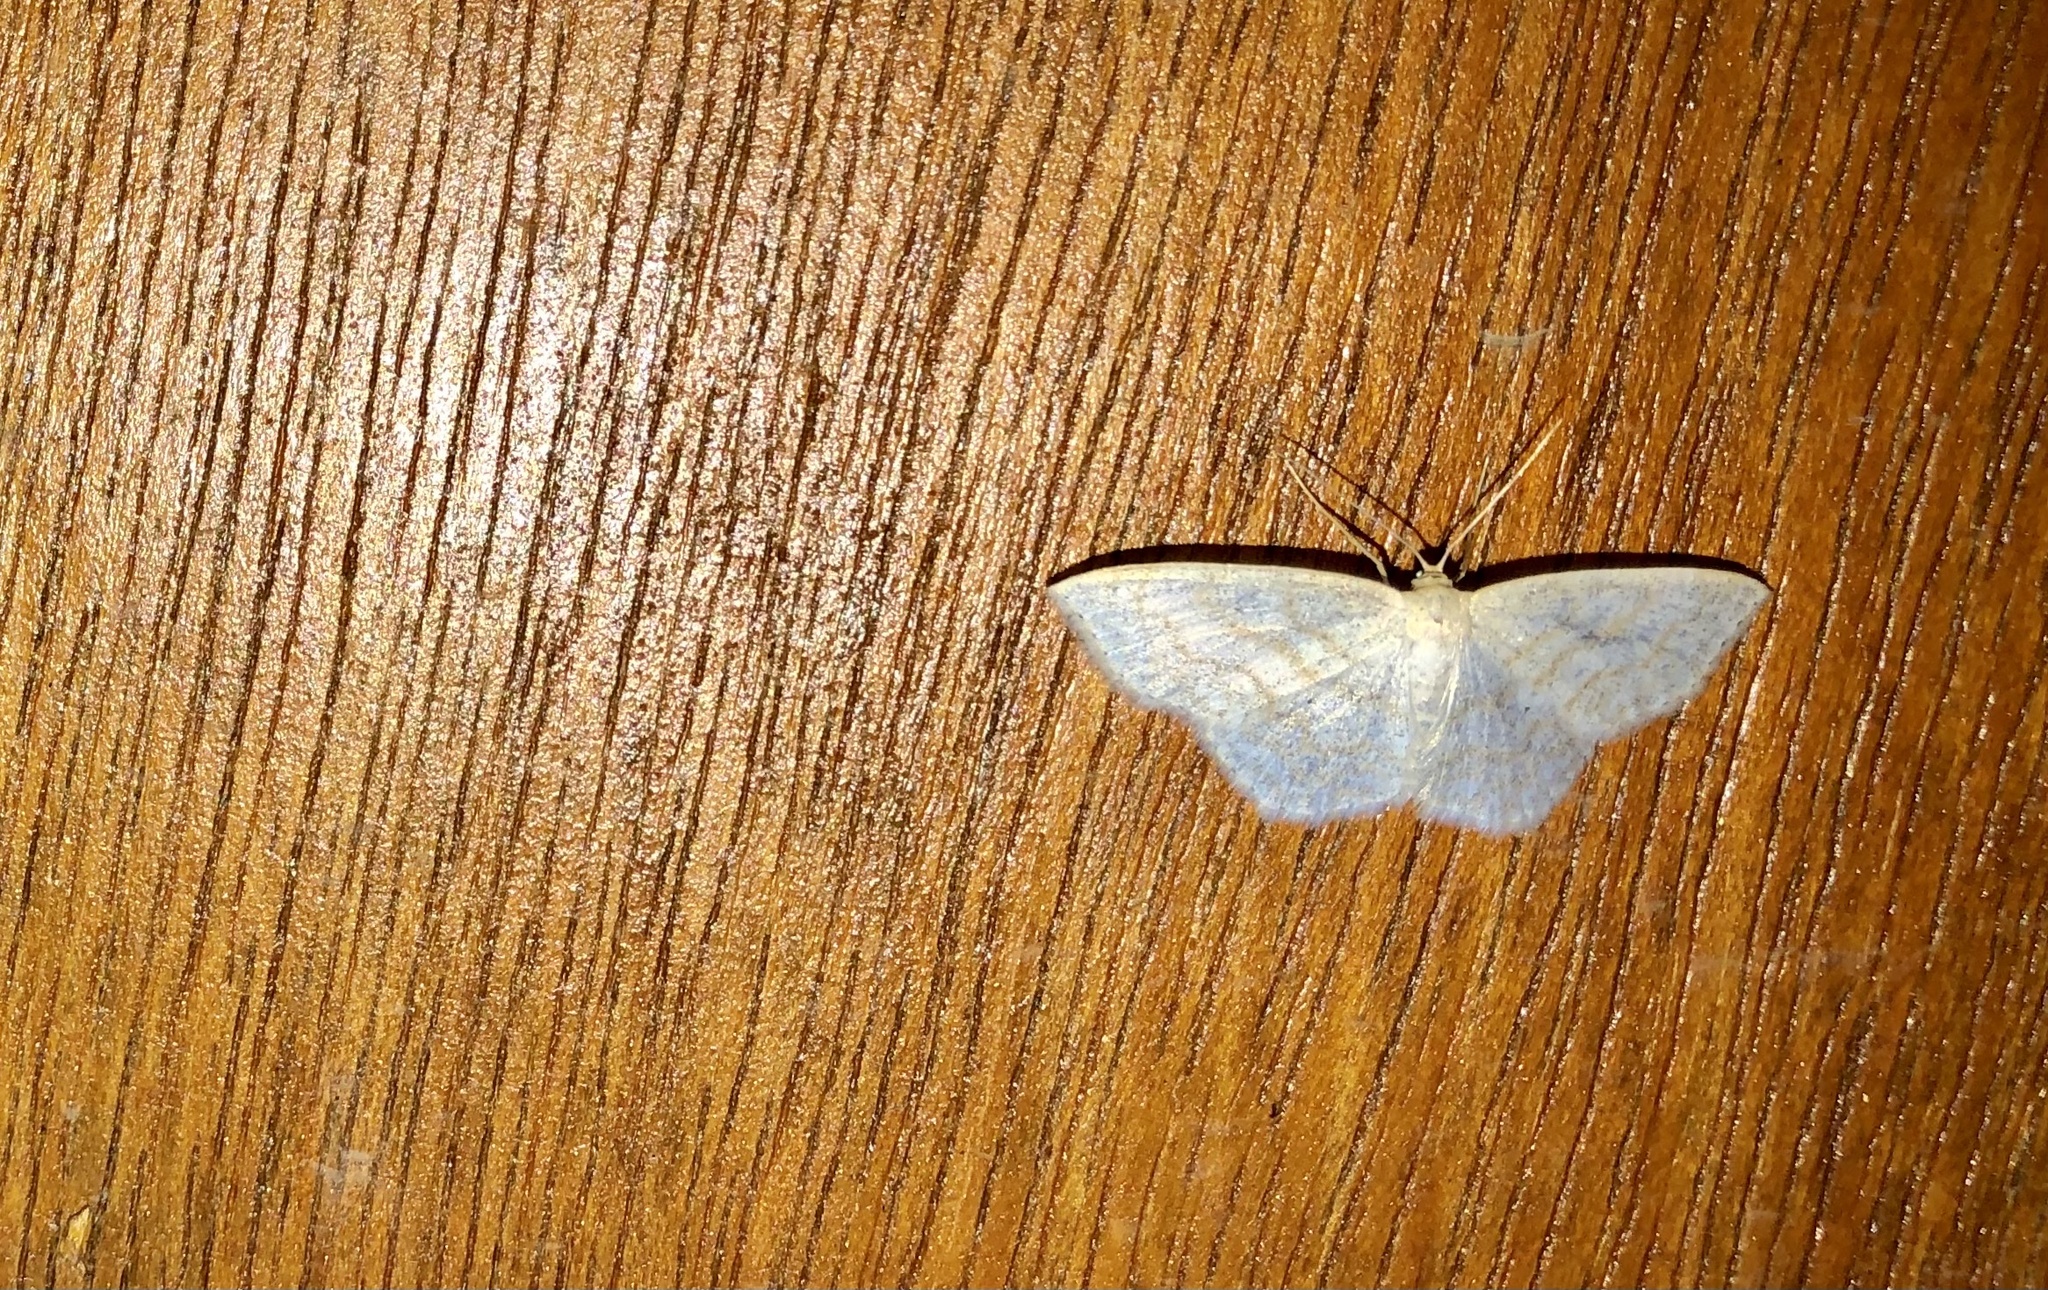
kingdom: Animalia
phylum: Arthropoda
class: Insecta
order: Lepidoptera
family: Geometridae
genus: Scopula
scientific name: Scopula limboundata
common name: Large lace border
